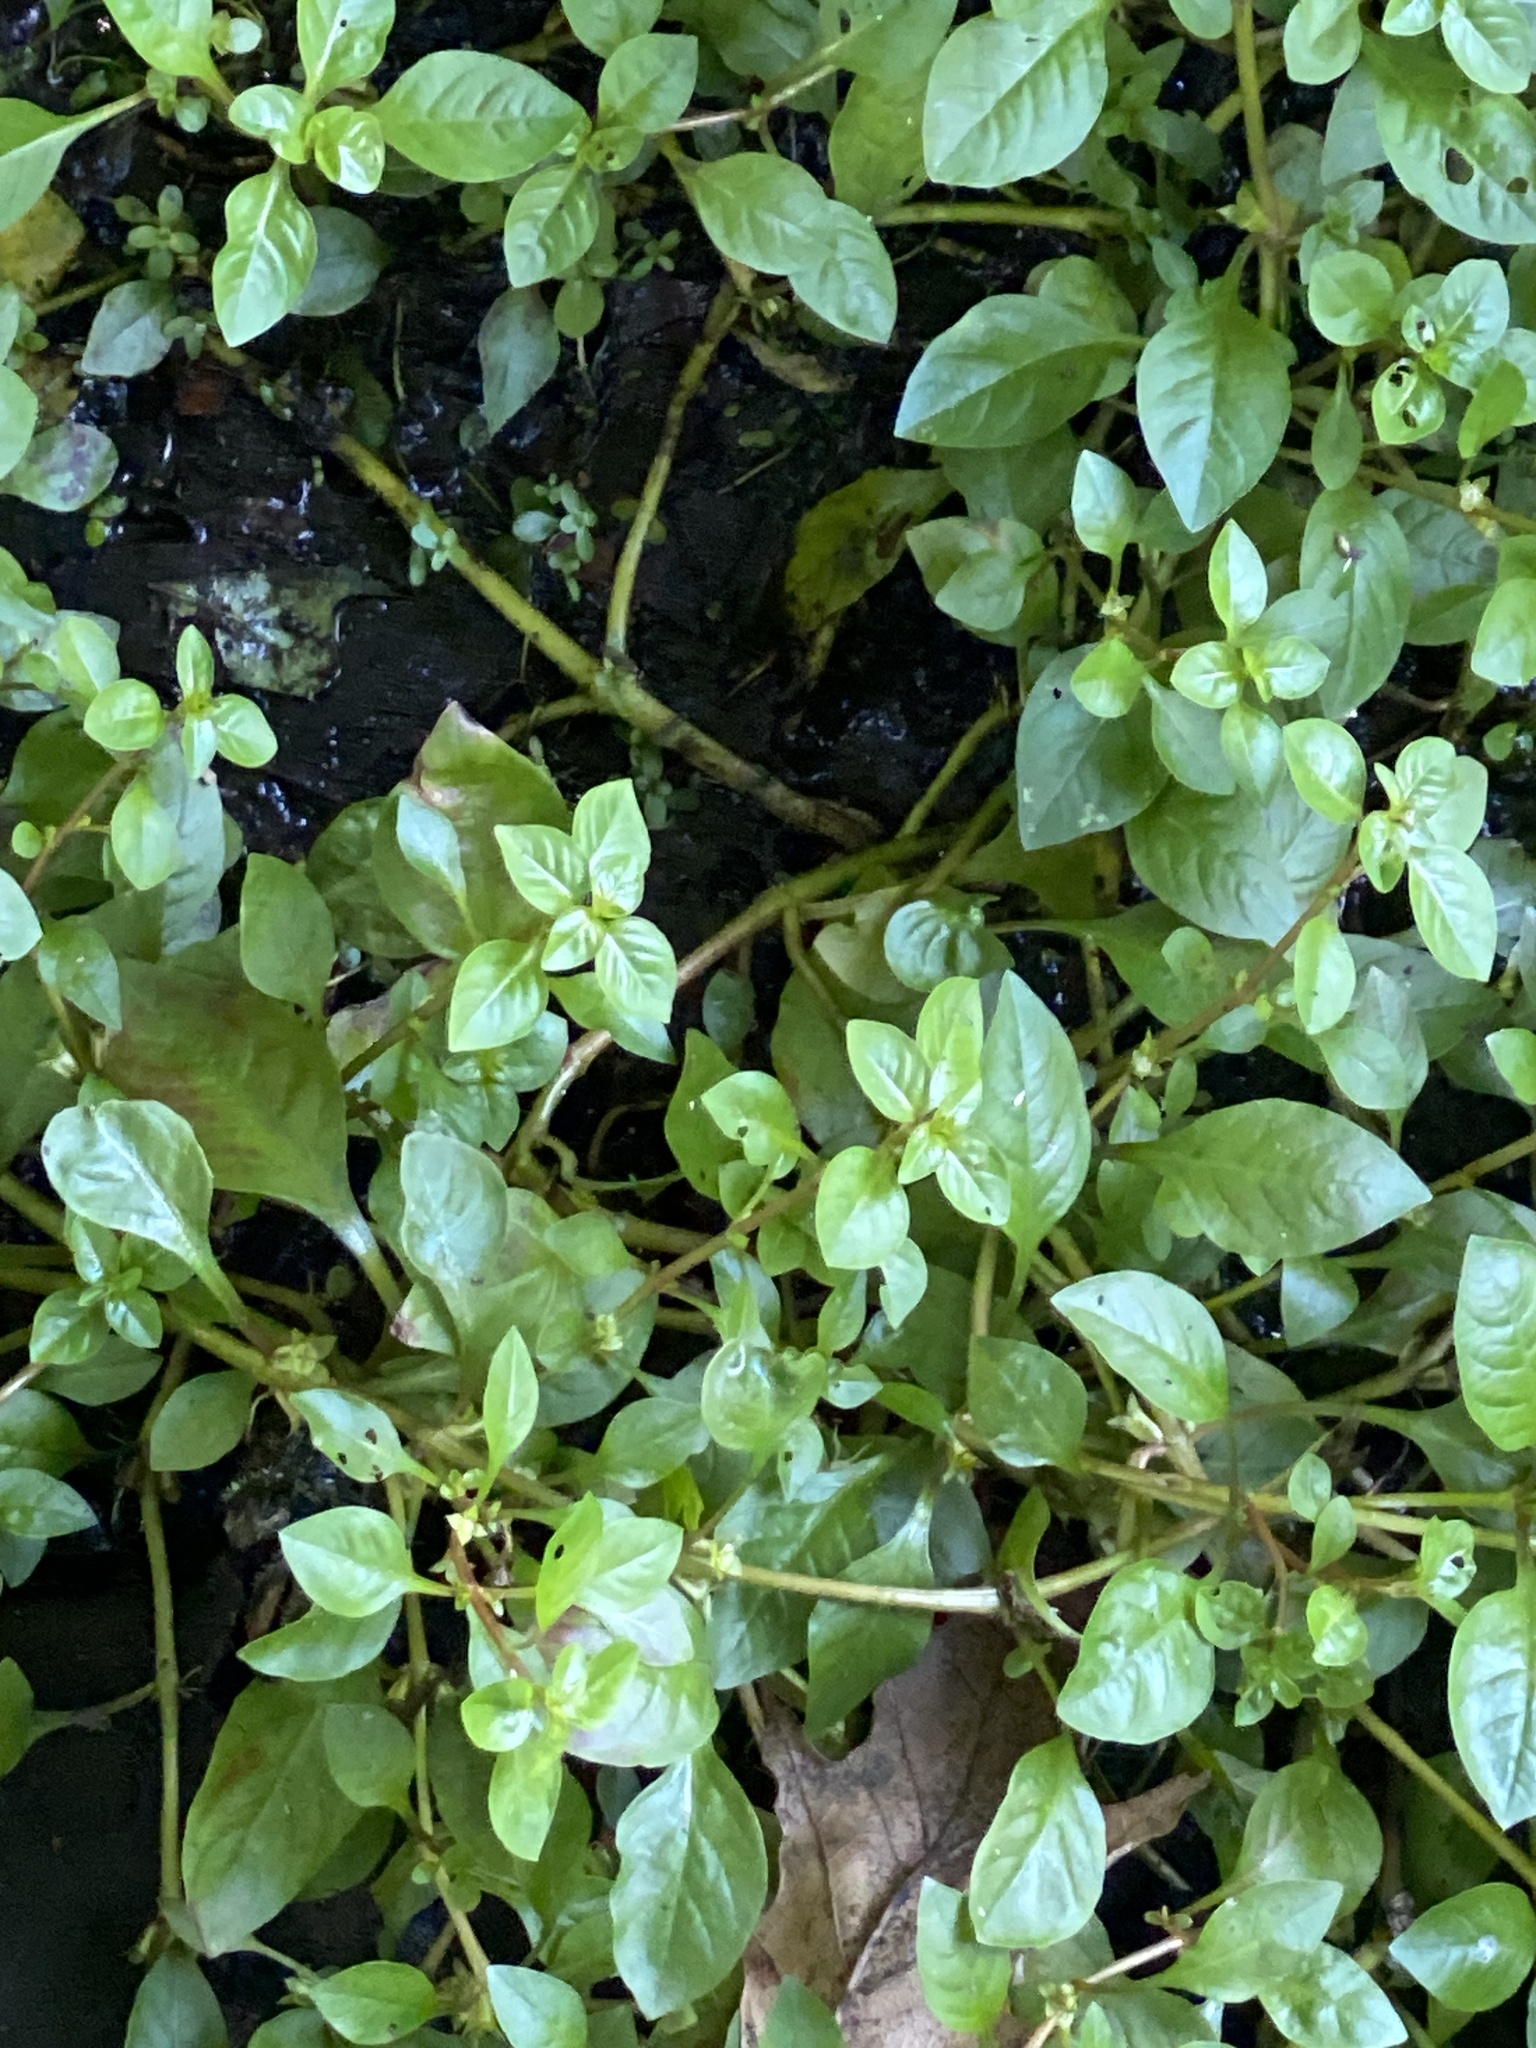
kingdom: Plantae
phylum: Tracheophyta
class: Magnoliopsida
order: Myrtales
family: Onagraceae
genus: Ludwigia
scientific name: Ludwigia palustris
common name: Hampshire-purslane
